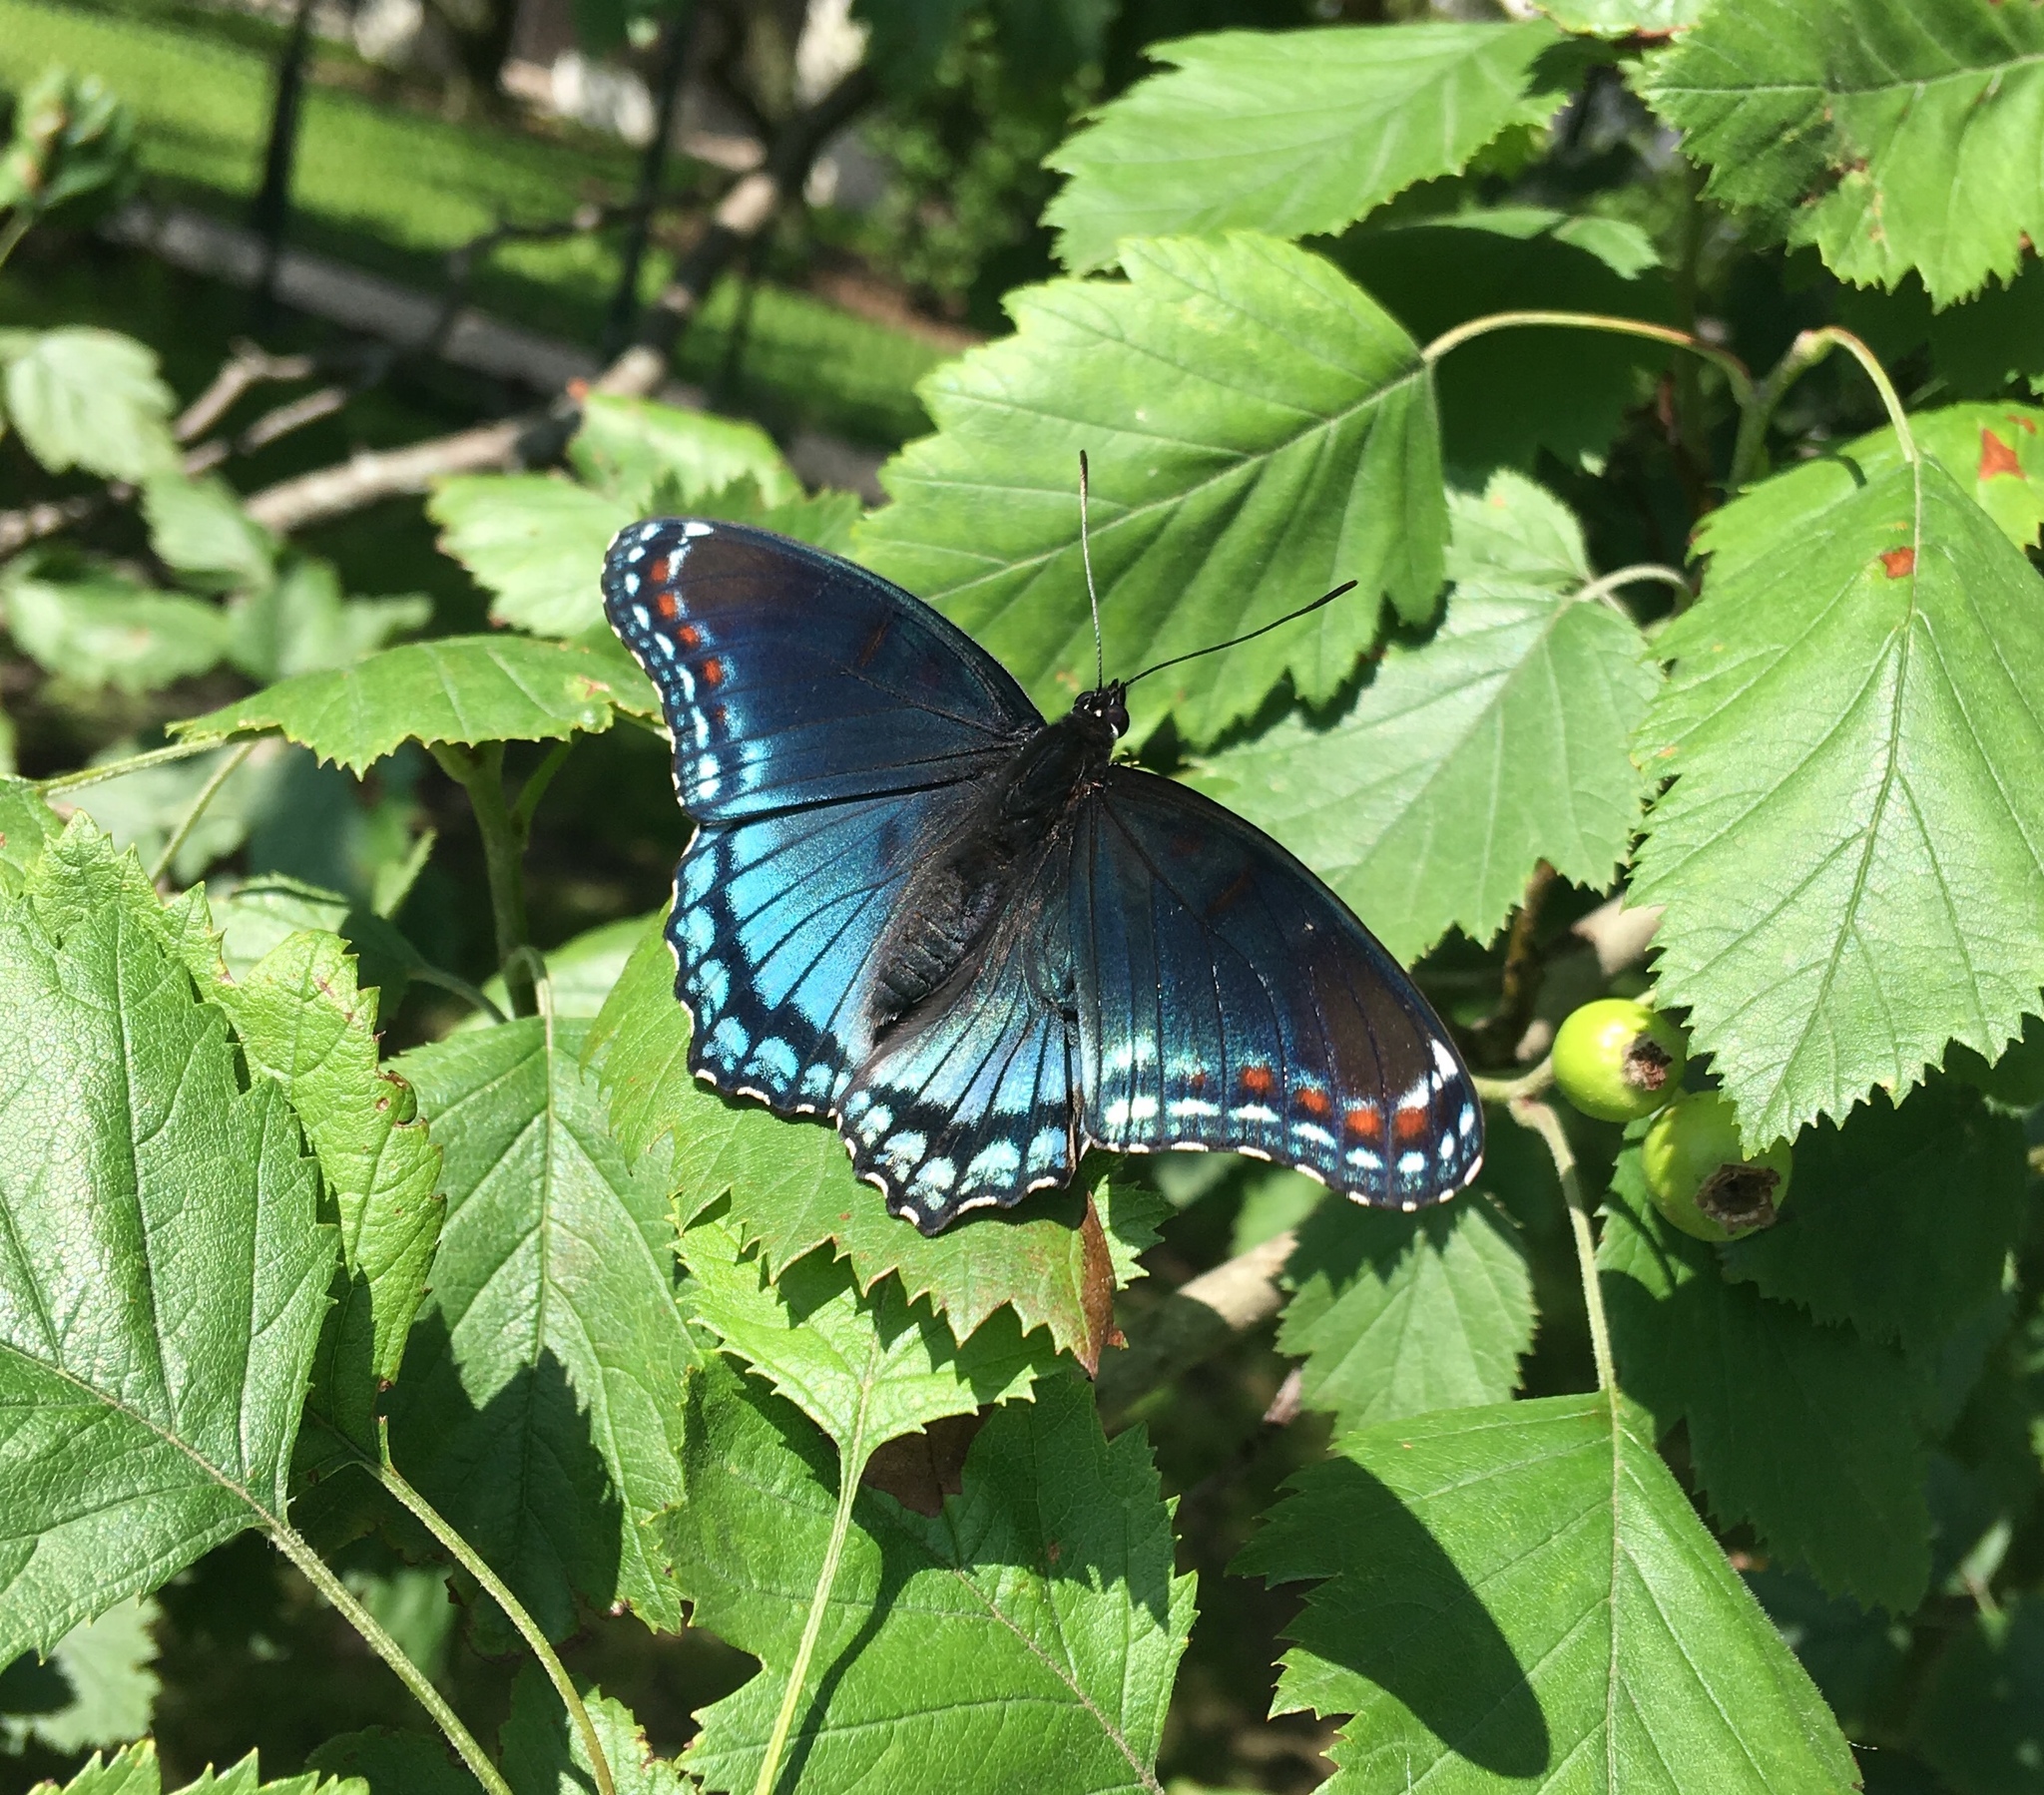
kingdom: Animalia
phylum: Arthropoda
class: Insecta
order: Lepidoptera
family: Nymphalidae
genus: Limenitis
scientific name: Limenitis astyanax
